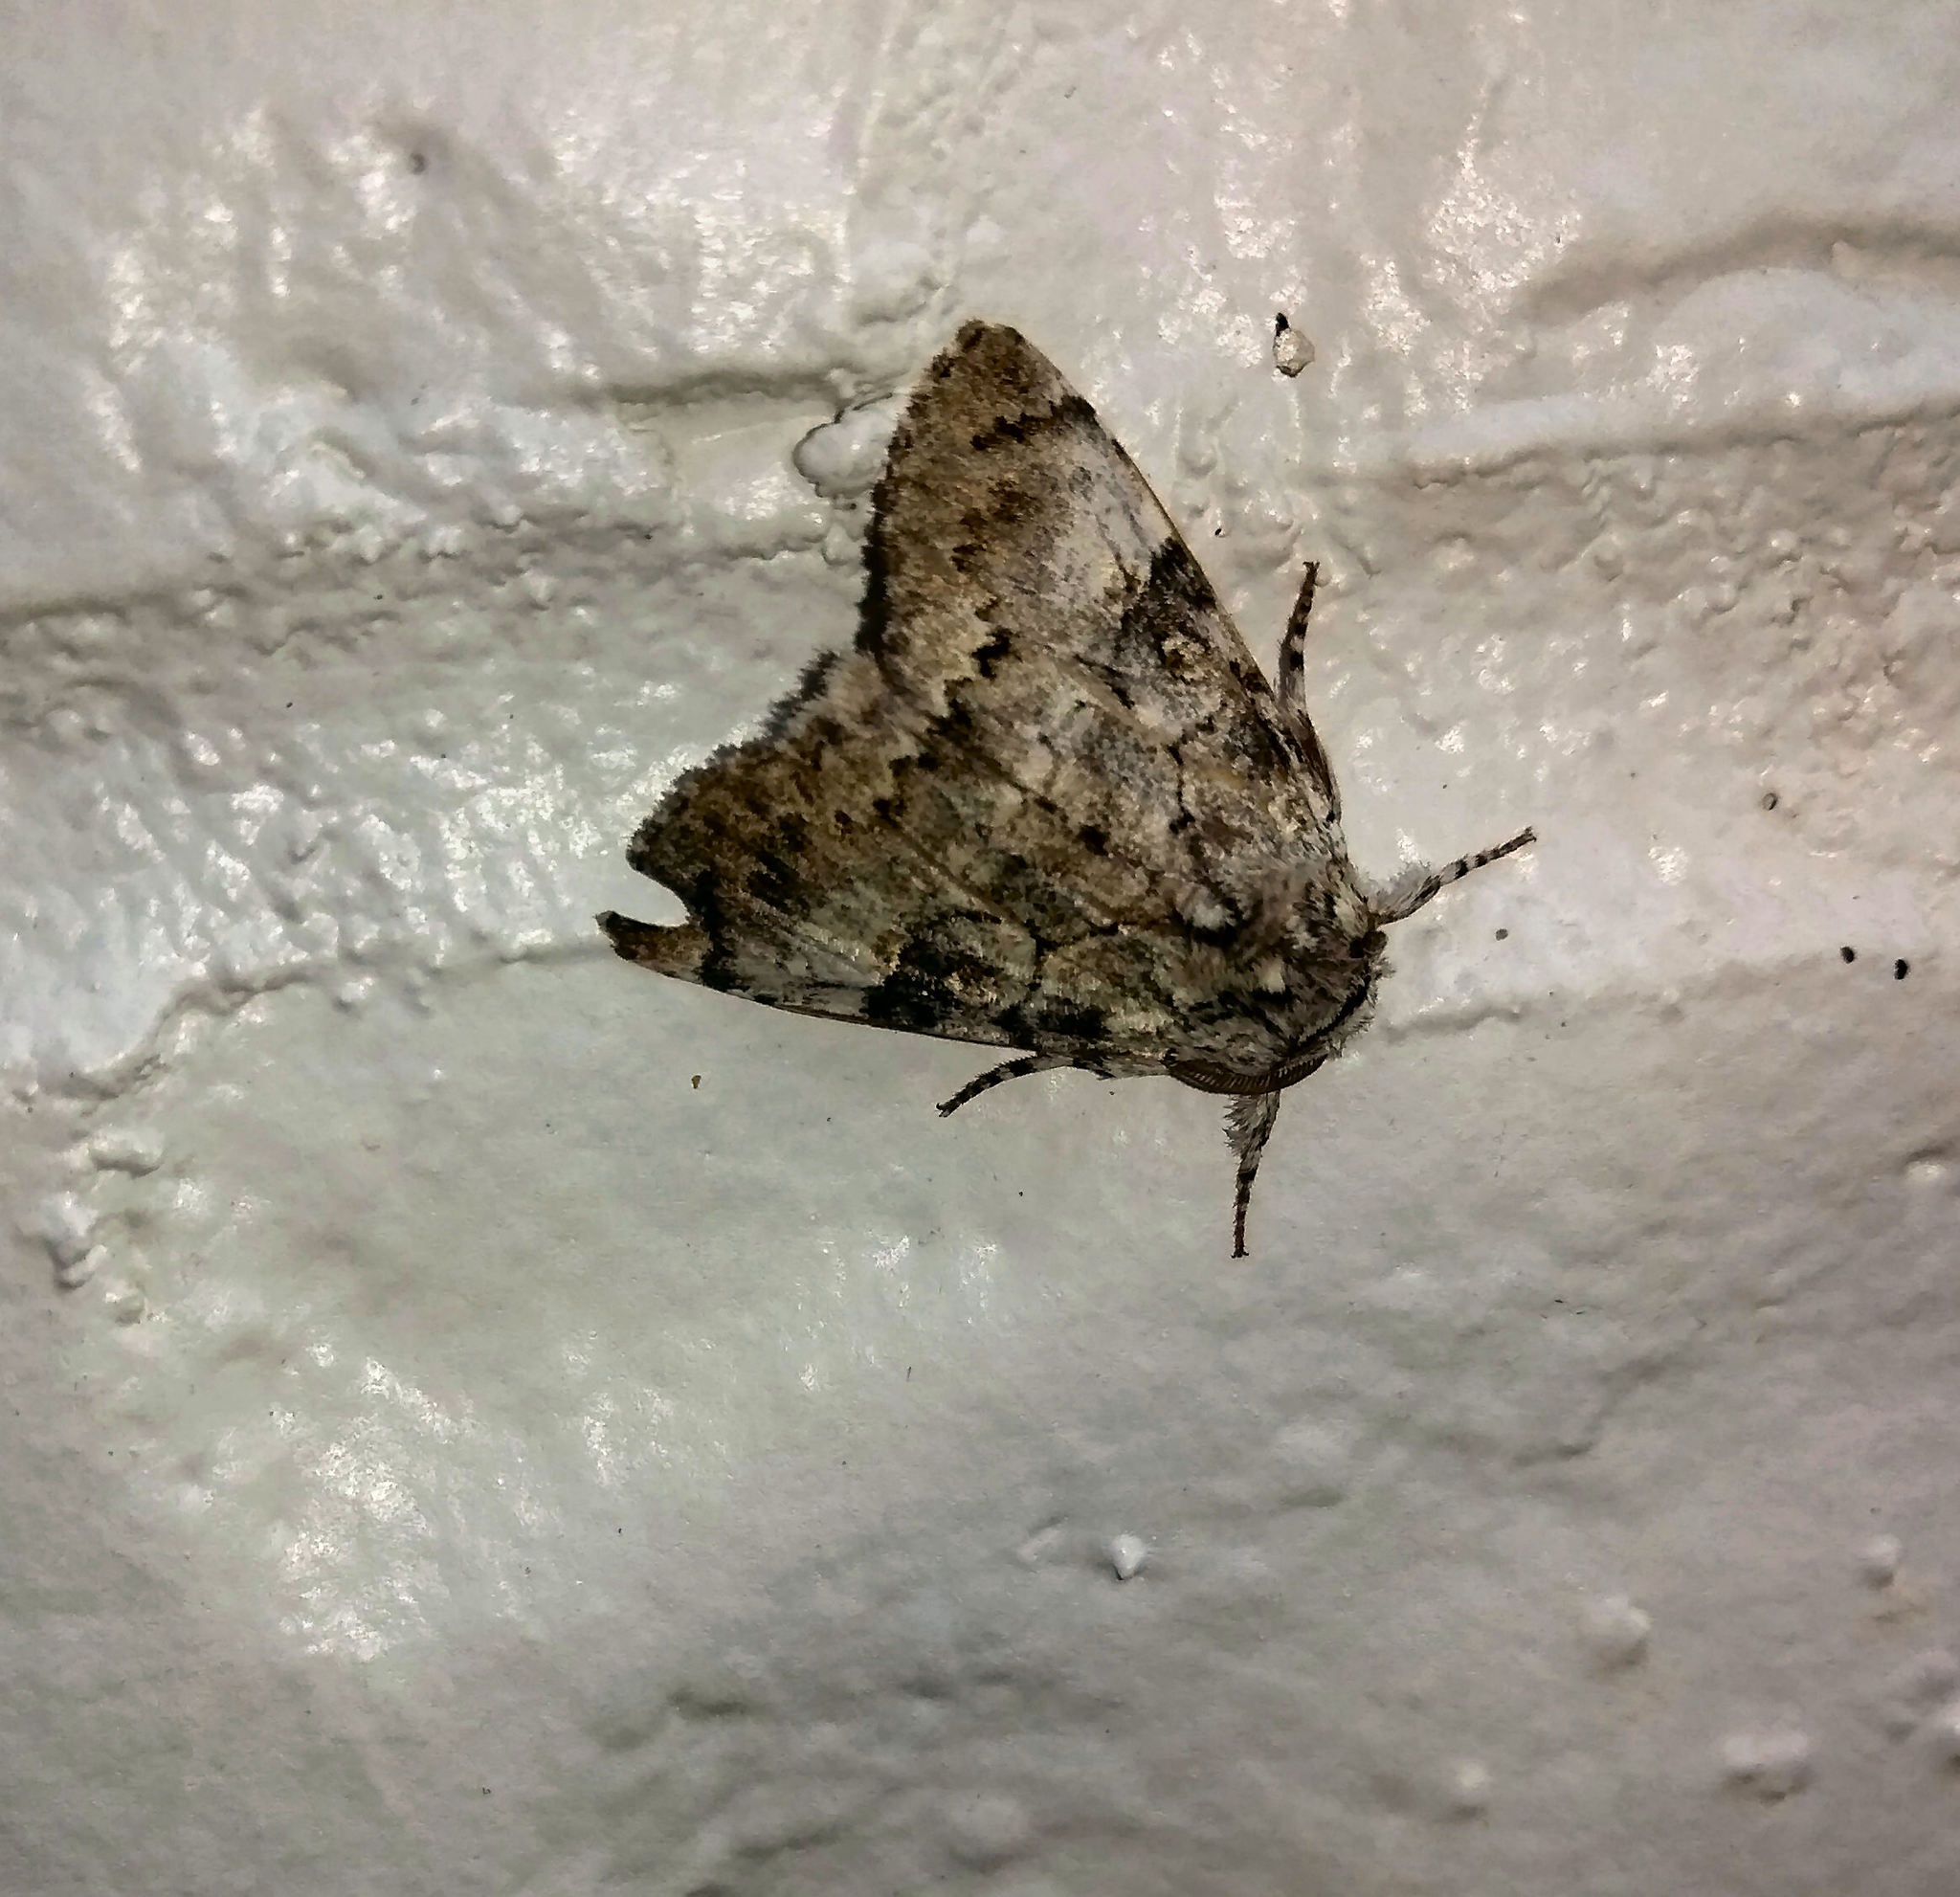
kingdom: Animalia
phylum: Arthropoda
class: Insecta
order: Lepidoptera
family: Noctuidae
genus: Charadra
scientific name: Charadra deridens
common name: Marbled tuffet
